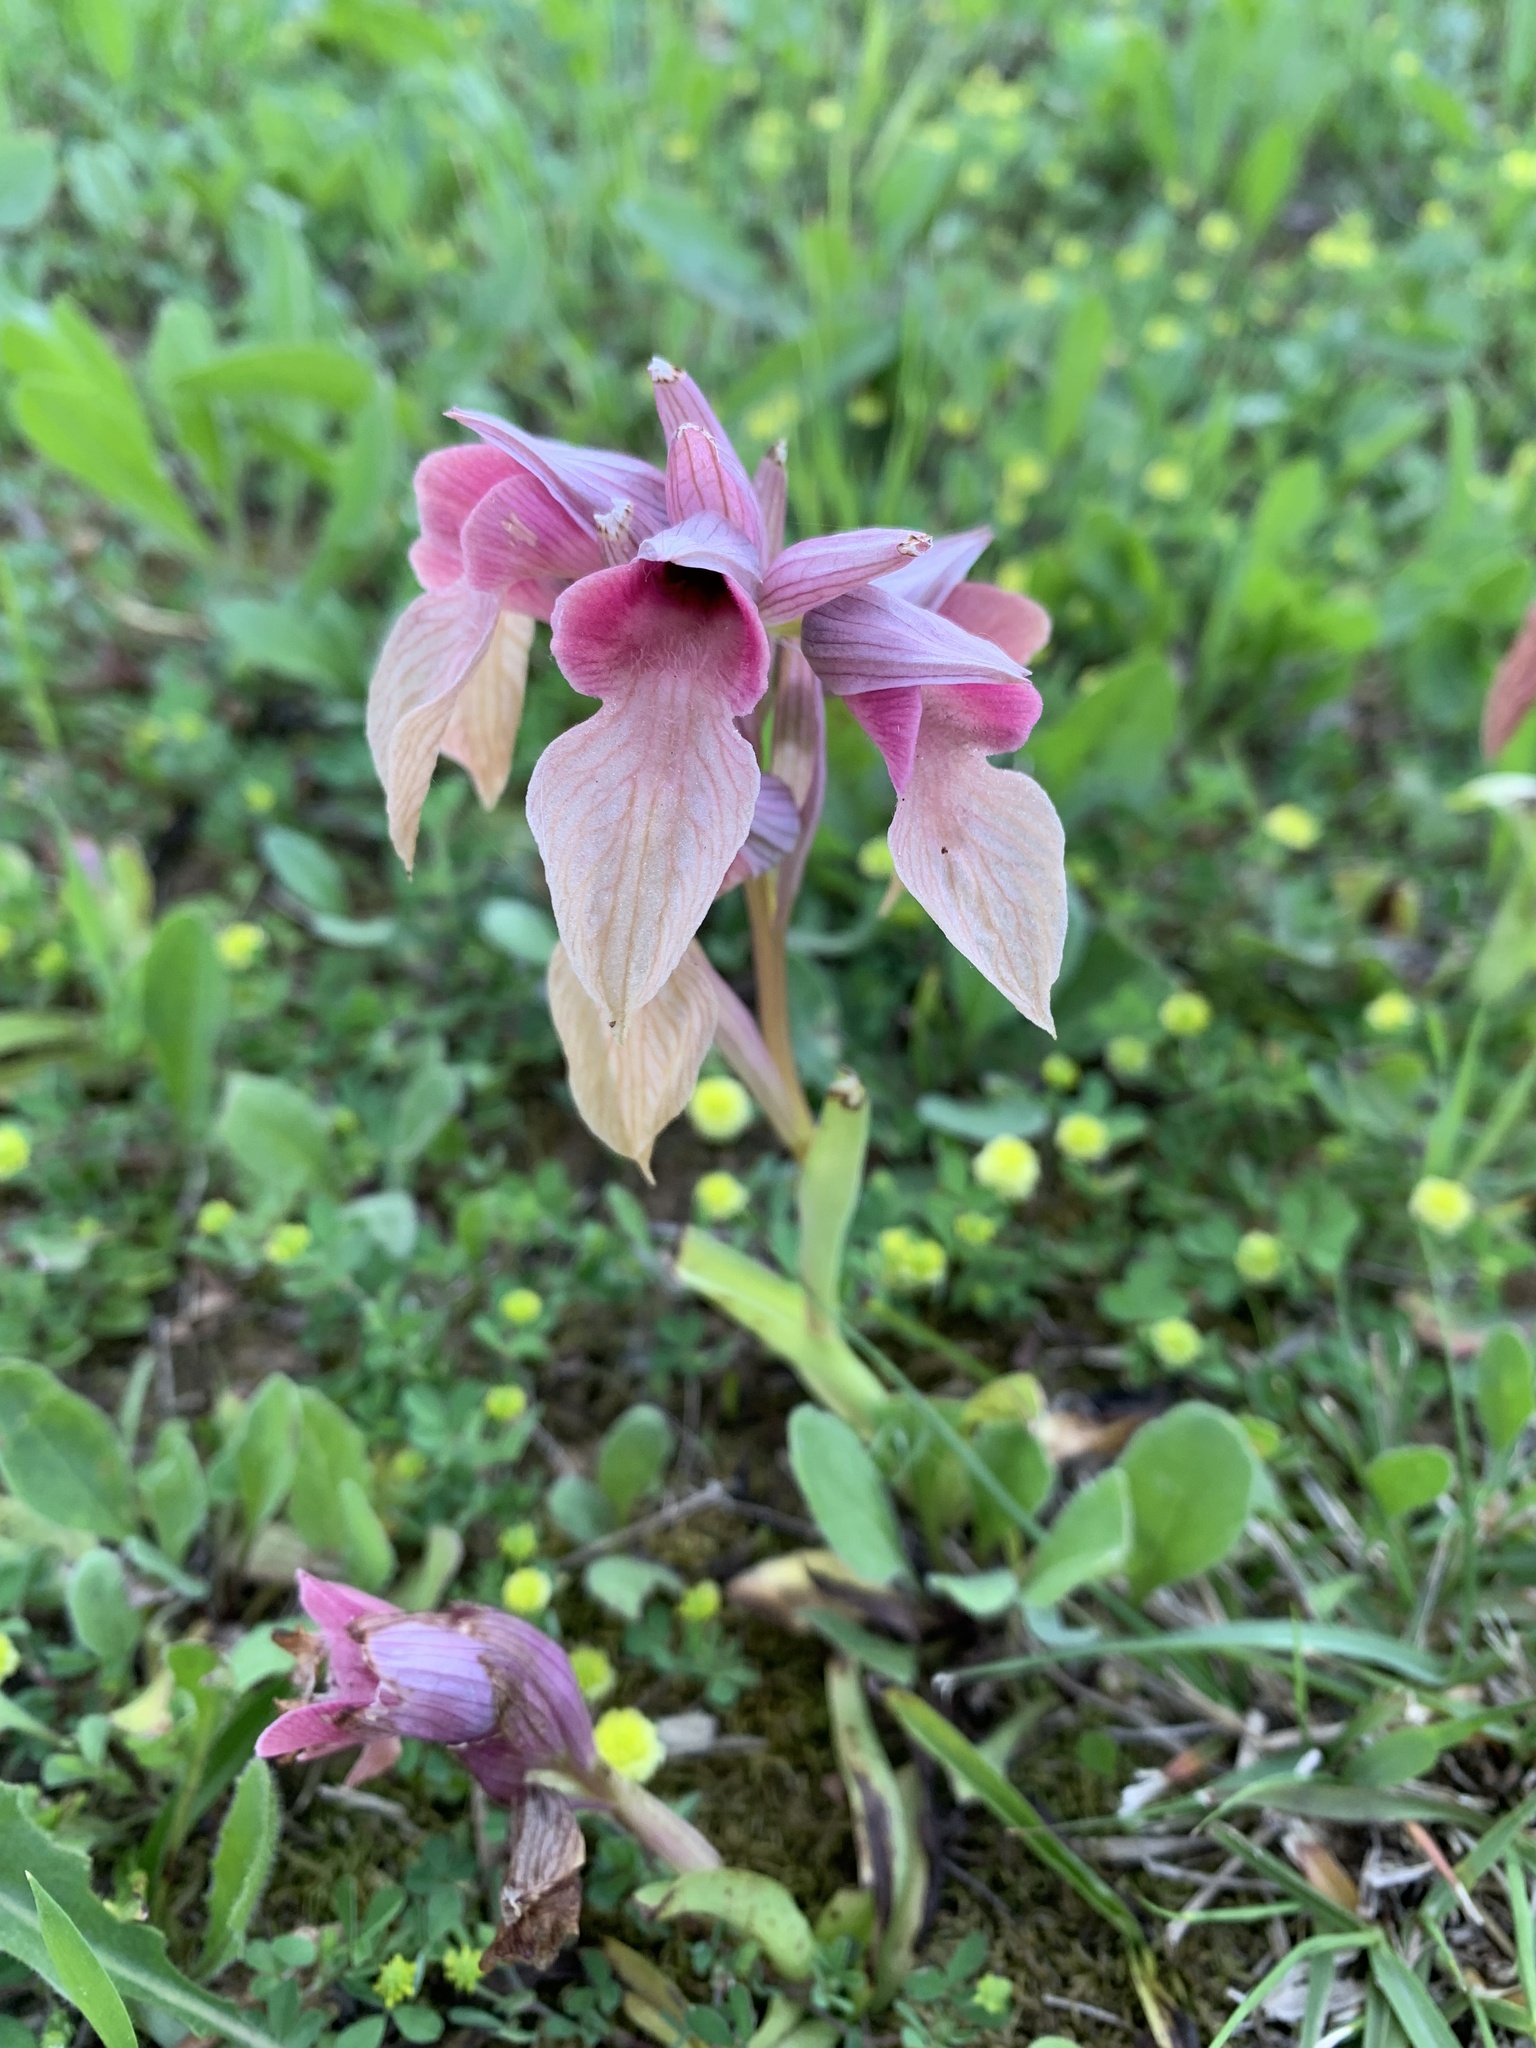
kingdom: Plantae
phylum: Tracheophyta
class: Liliopsida
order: Asparagales
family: Orchidaceae
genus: Serapias
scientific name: Serapias neglecta
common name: Neglected serapias
